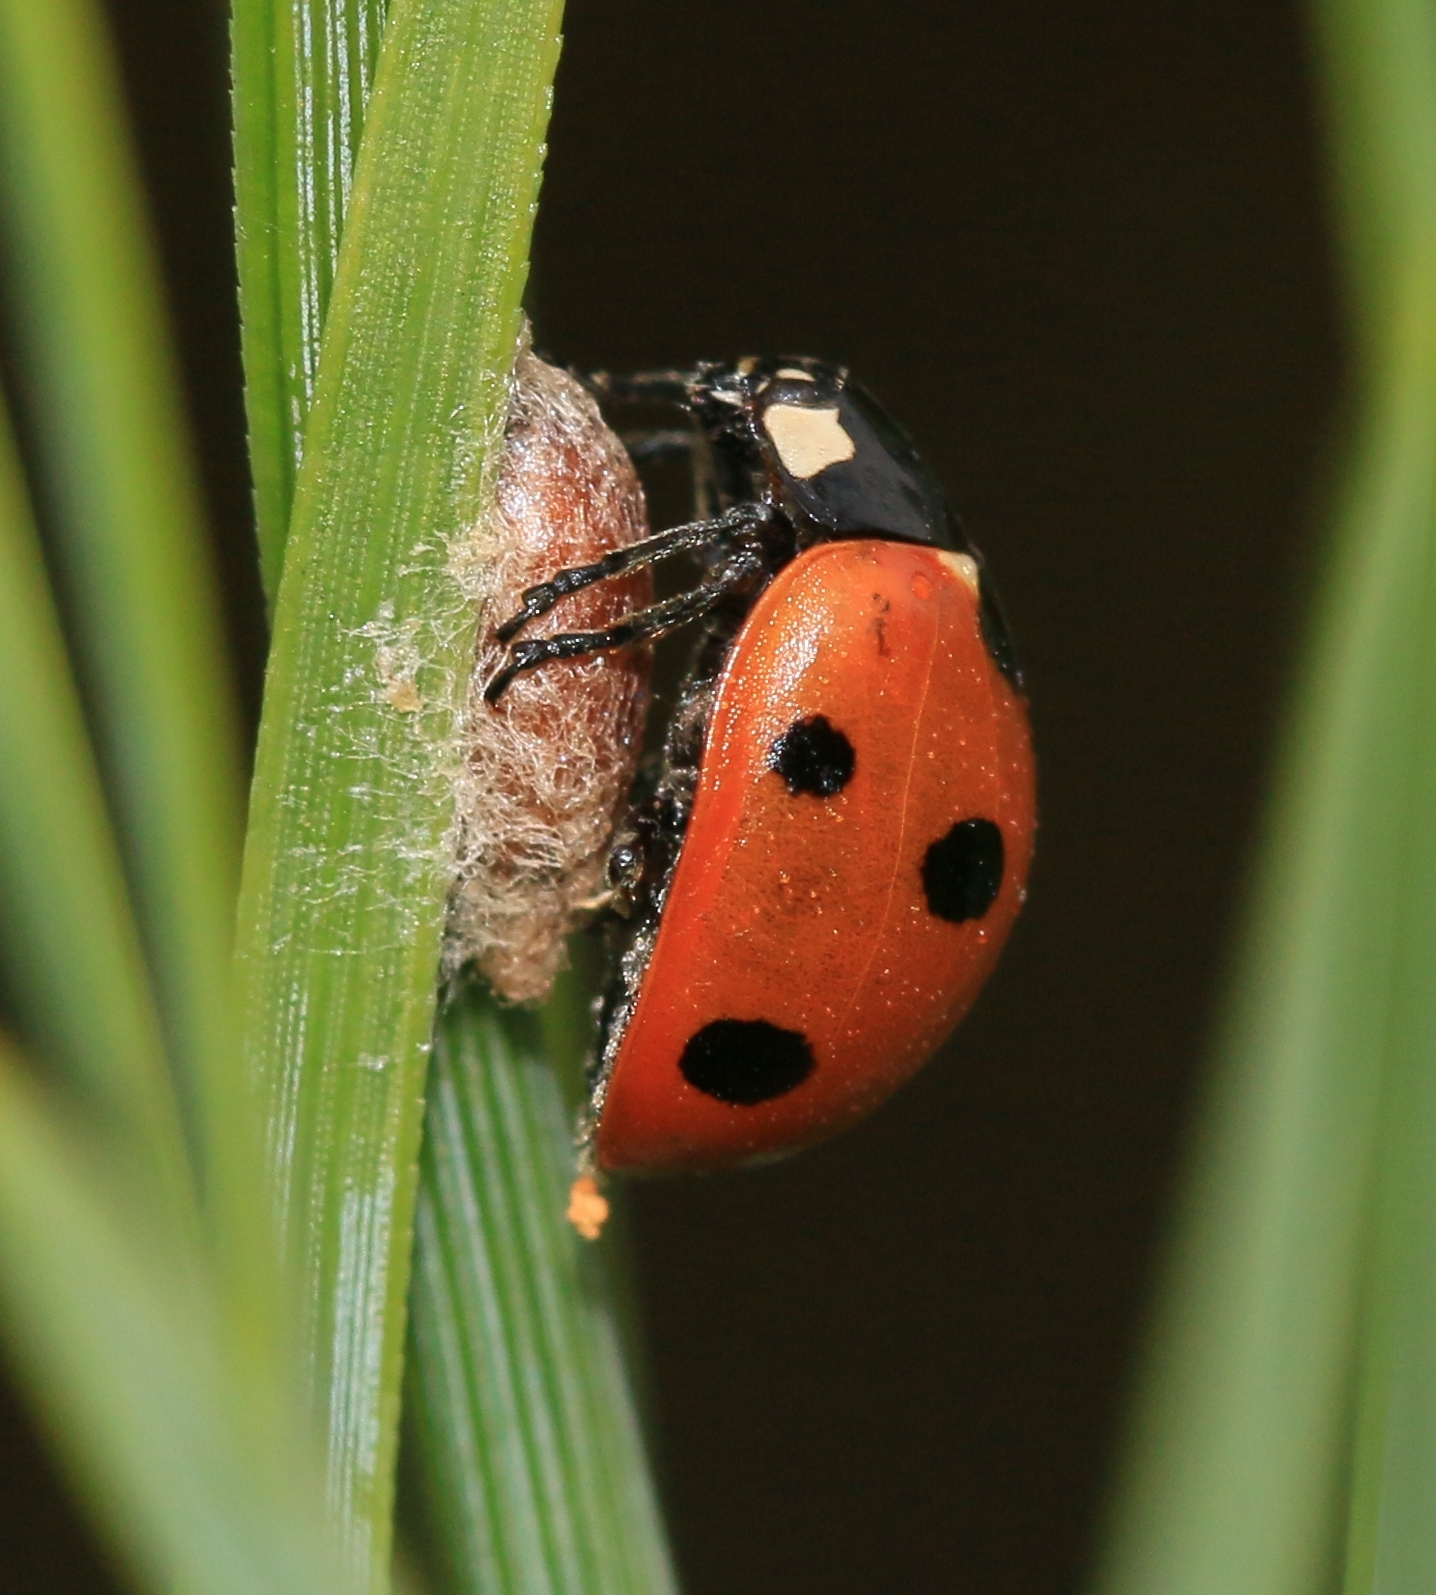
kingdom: Viruses
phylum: Pisuviricota
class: Pisoniviricetes
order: Picornavirales
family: Iflaviridae
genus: Iflavirus
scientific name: Iflavirus dinococcinellae
